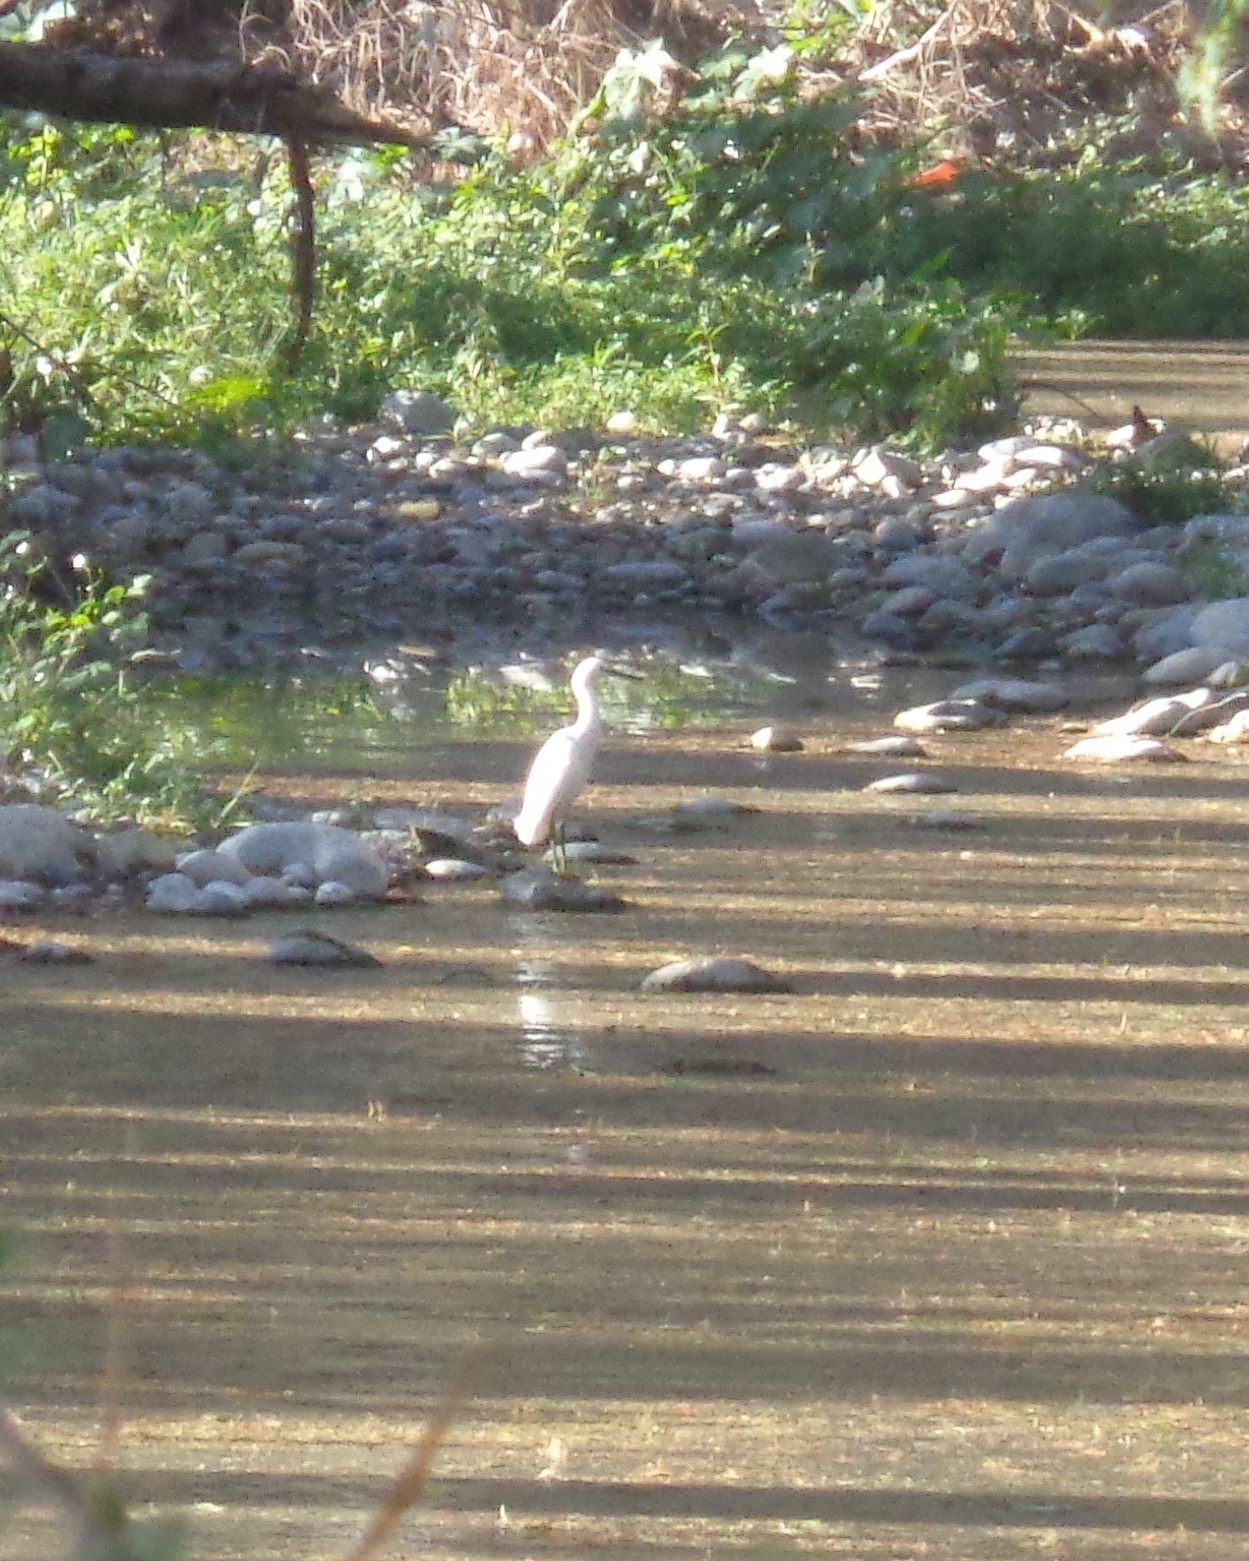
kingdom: Animalia
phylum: Chordata
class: Aves
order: Pelecaniformes
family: Ardeidae
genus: Egretta
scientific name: Egretta thula
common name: Snowy egret
